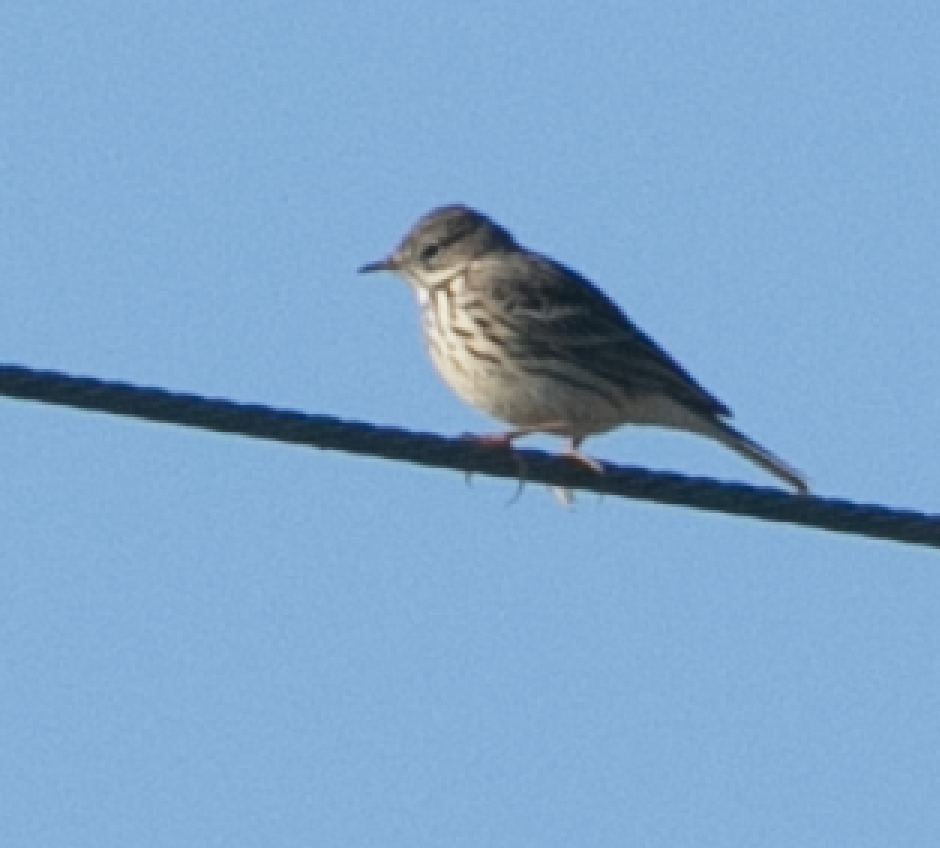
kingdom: Animalia
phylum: Chordata
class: Aves
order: Passeriformes
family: Motacillidae
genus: Anthus
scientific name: Anthus pratensis
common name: Meadow pipit
